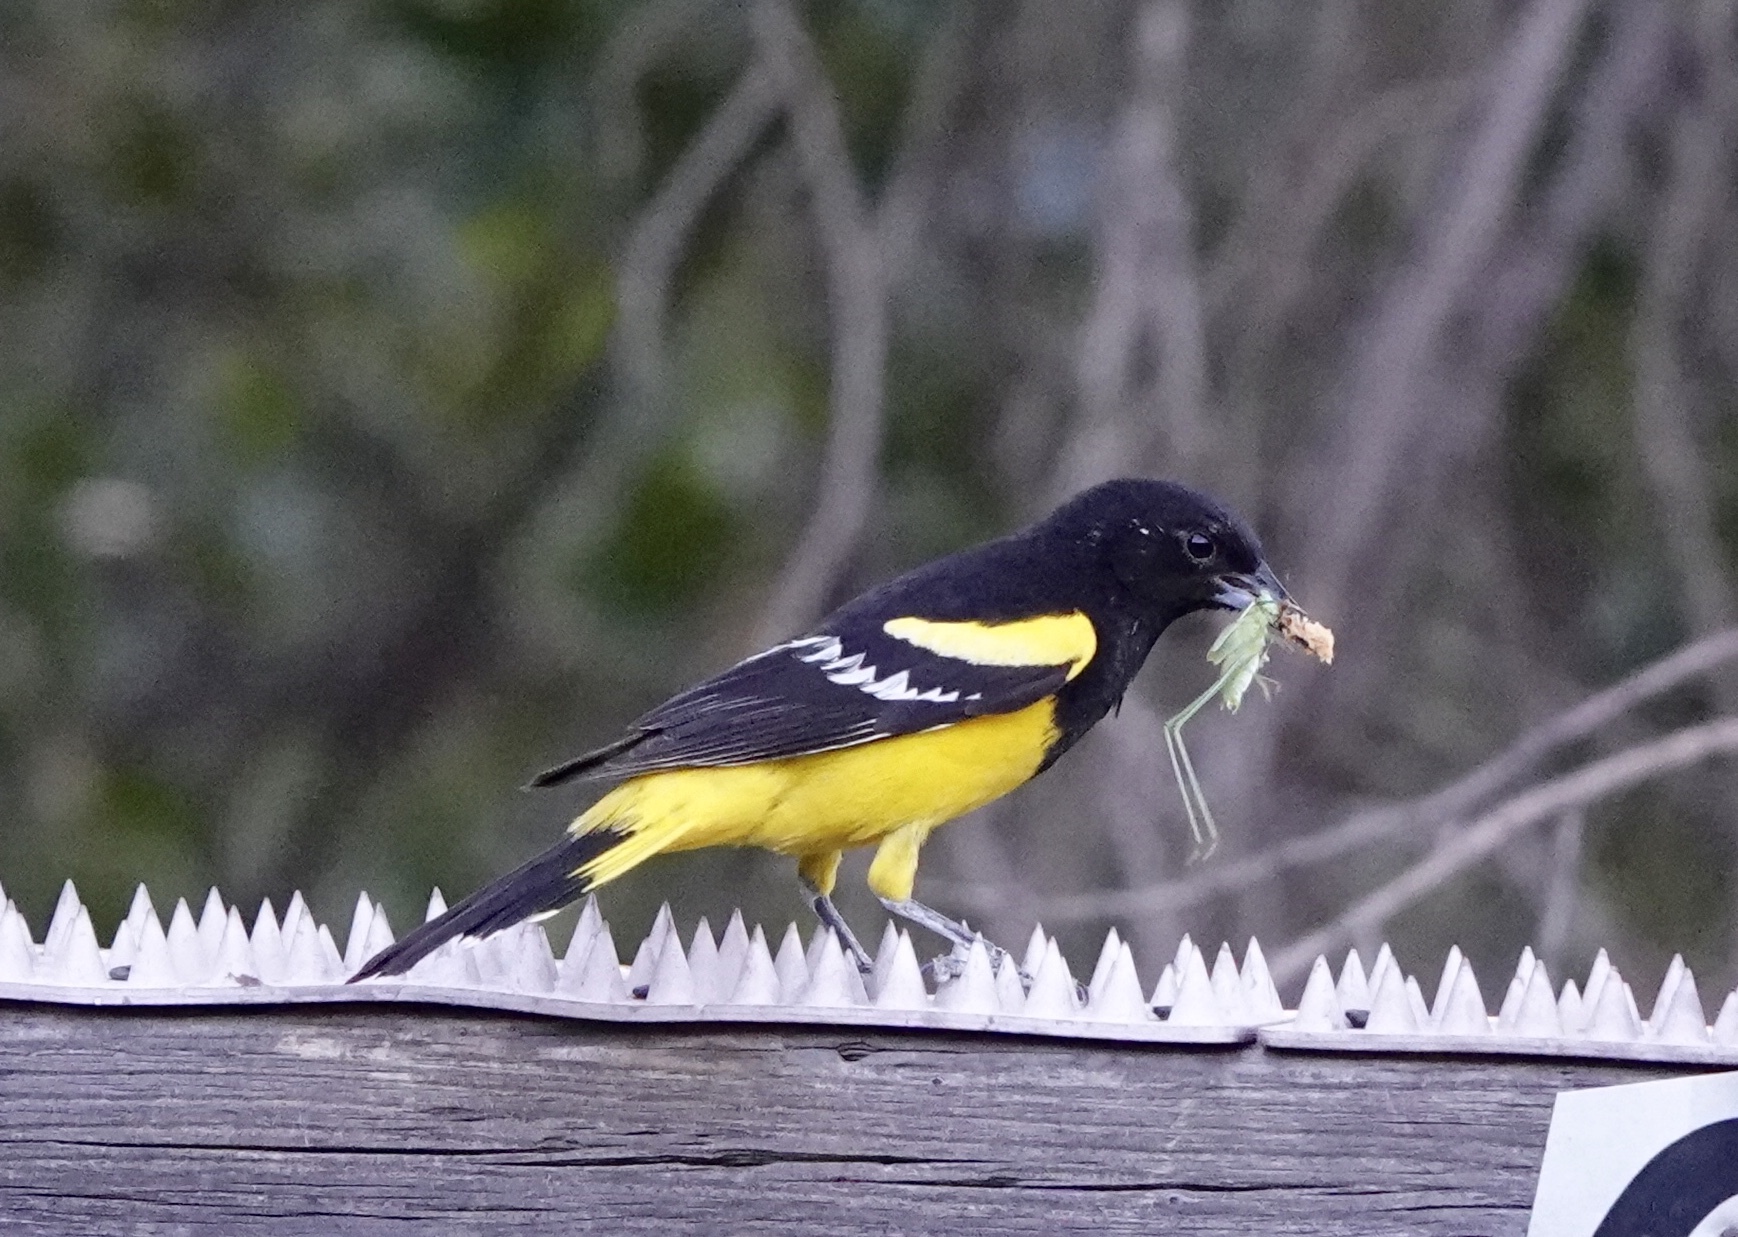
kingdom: Animalia
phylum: Chordata
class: Aves
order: Passeriformes
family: Icteridae
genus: Icterus
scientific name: Icterus parisorum
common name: Scott's oriole
